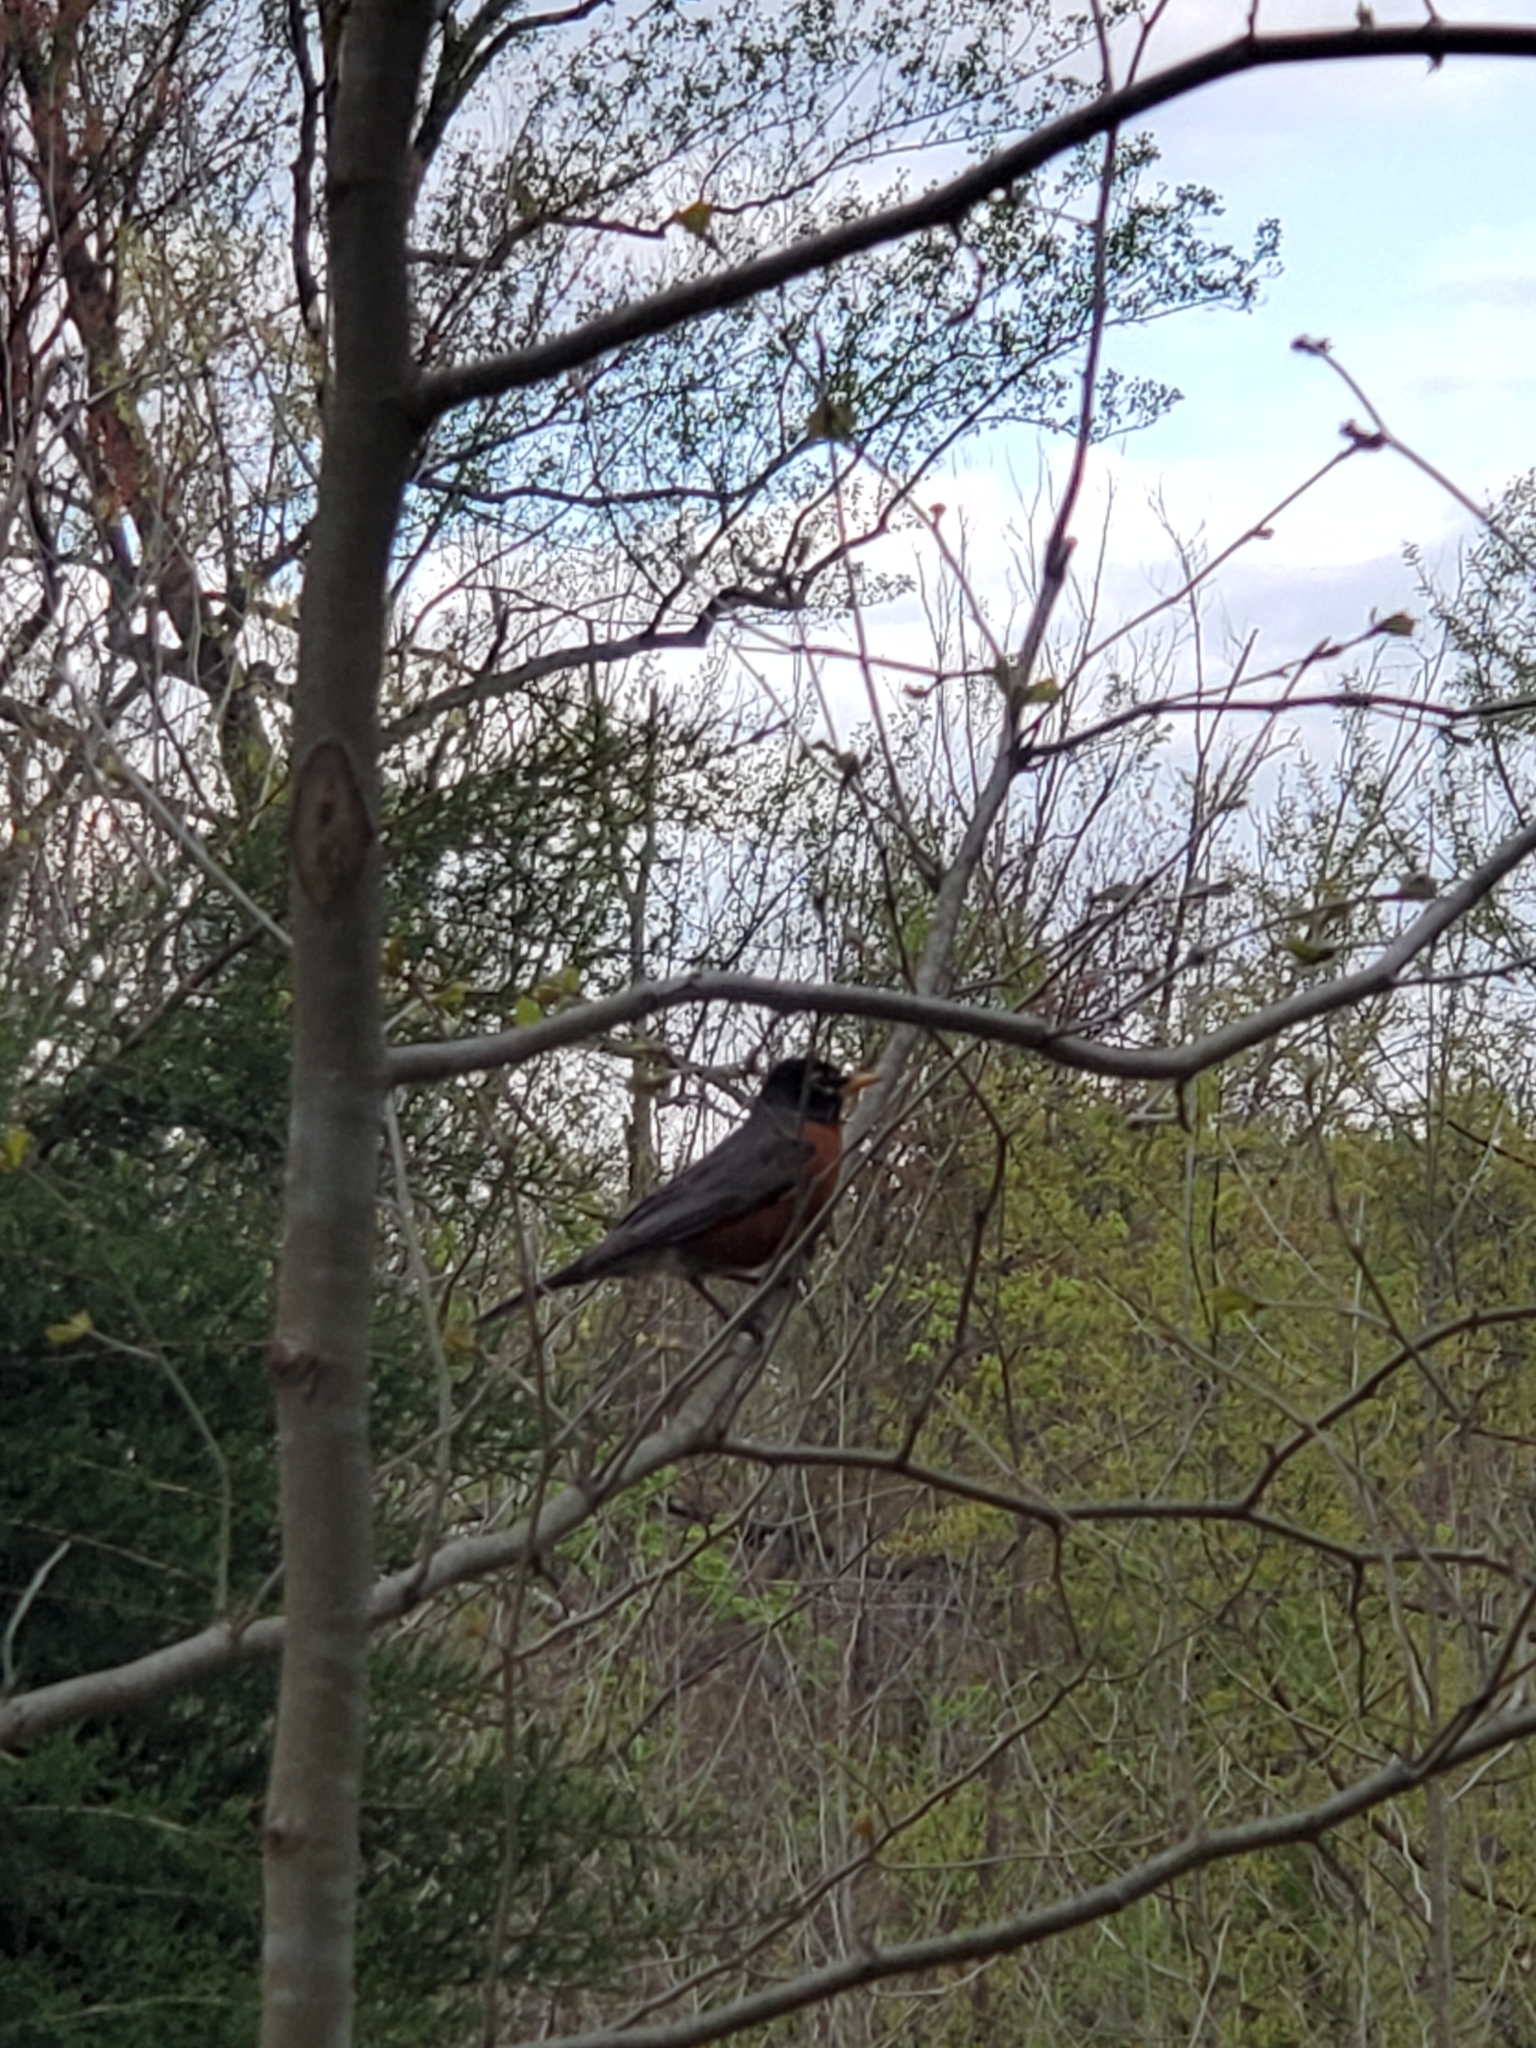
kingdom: Animalia
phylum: Chordata
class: Aves
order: Passeriformes
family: Turdidae
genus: Turdus
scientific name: Turdus migratorius
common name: American robin
